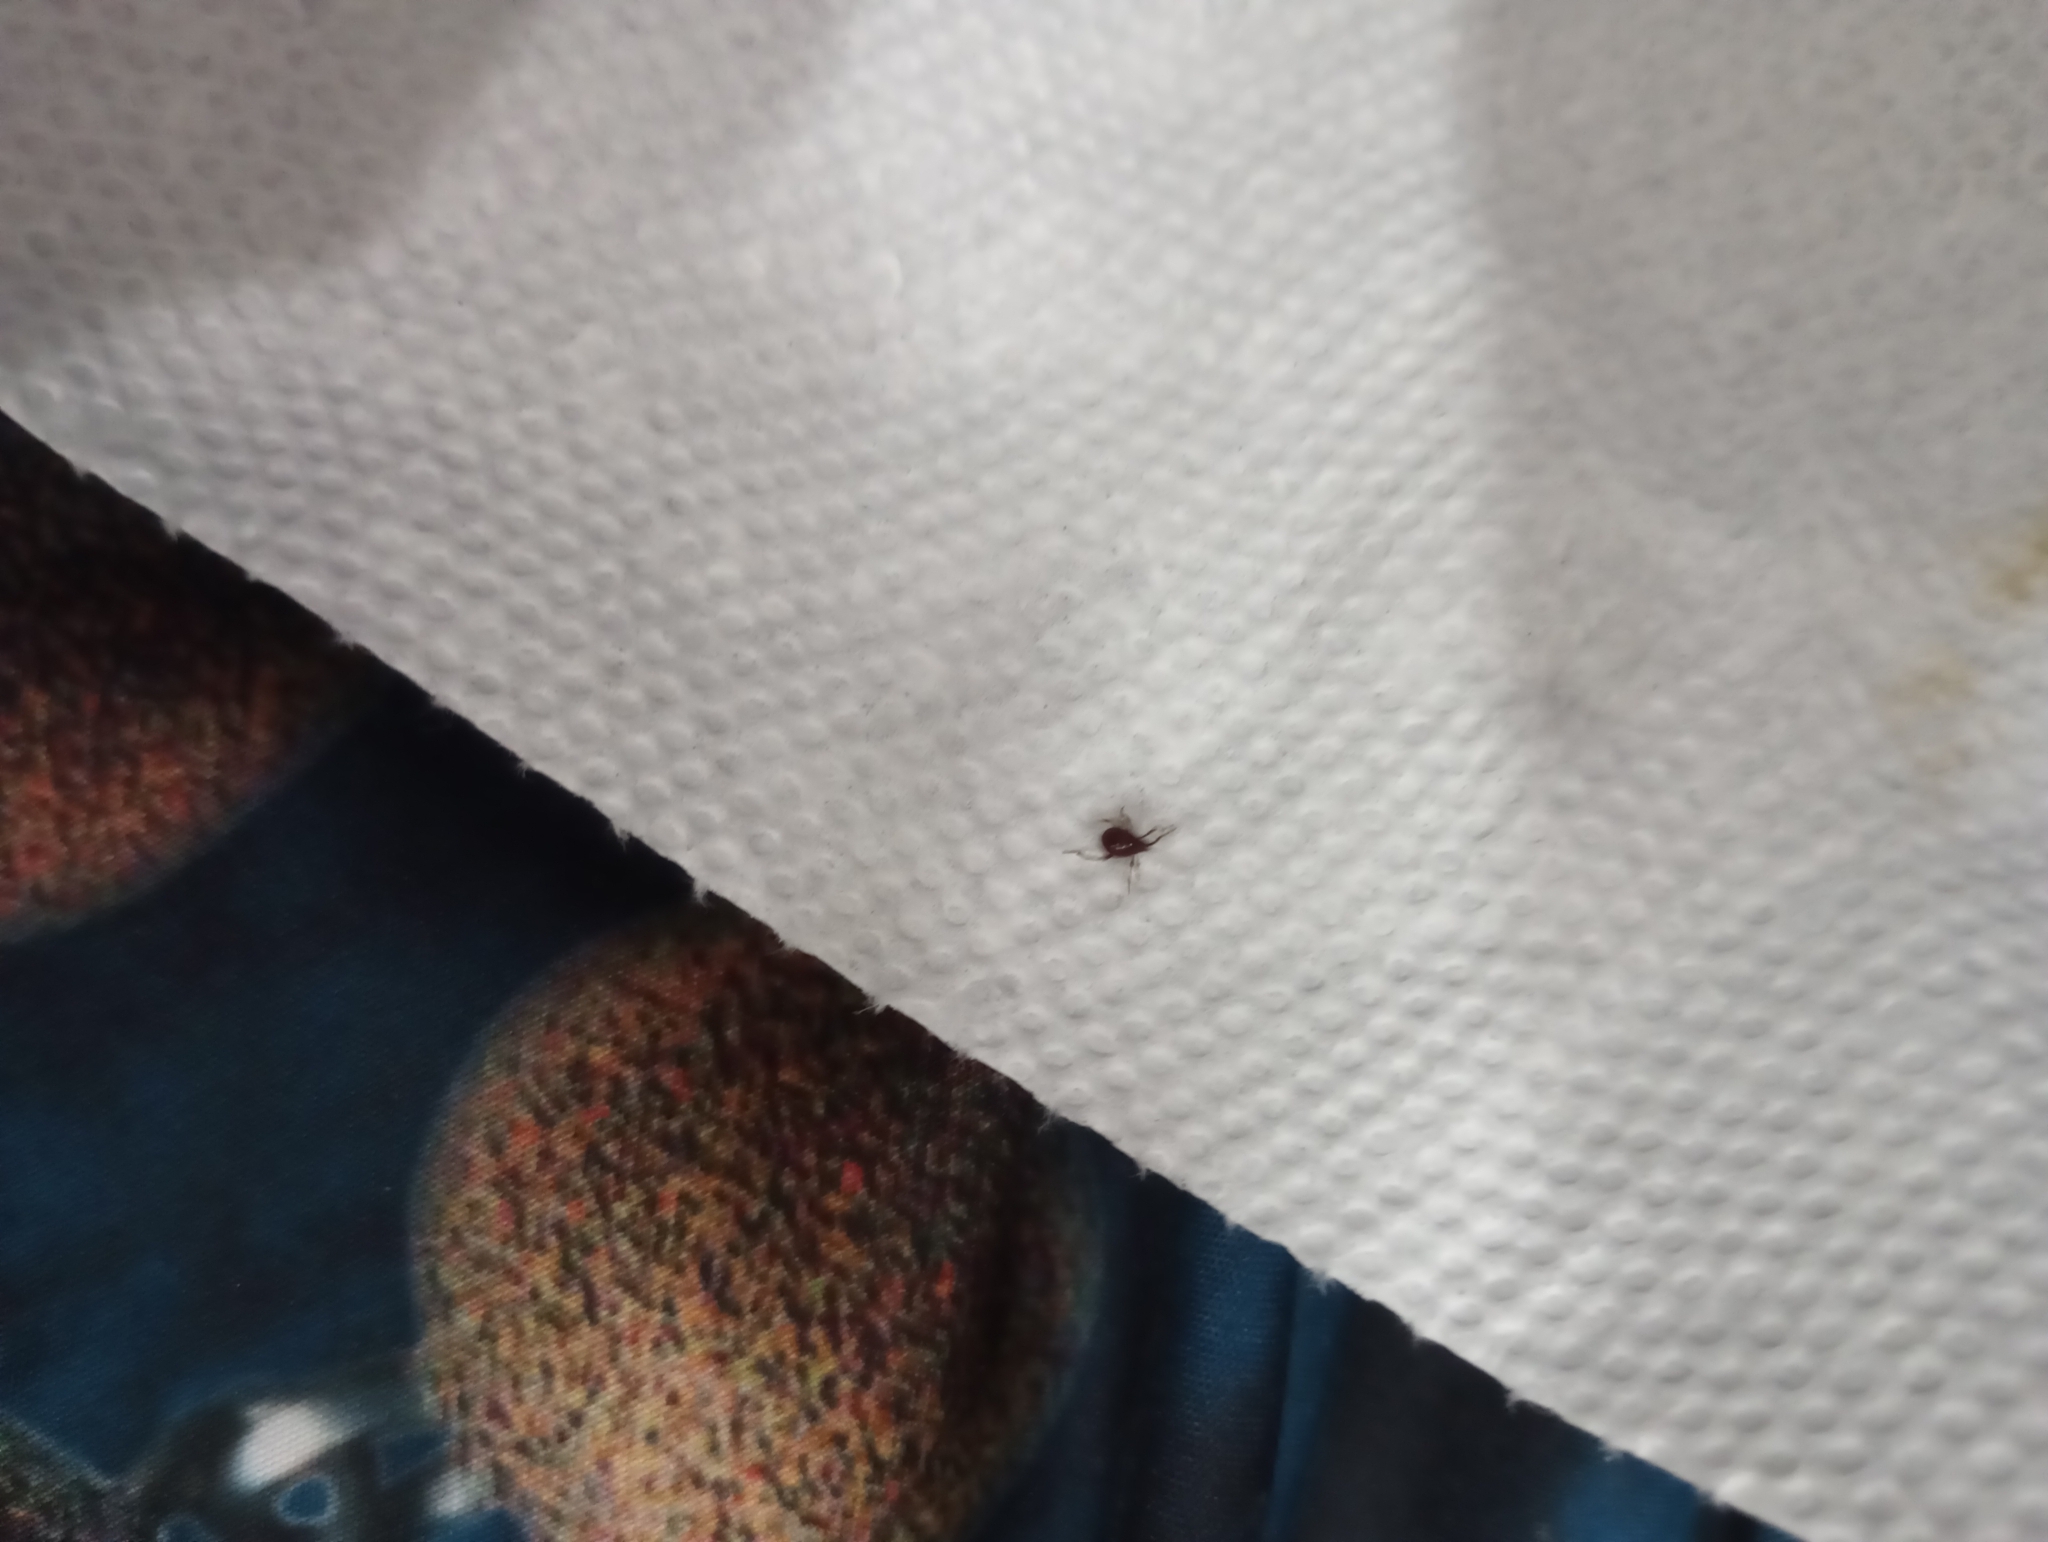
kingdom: Animalia
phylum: Arthropoda
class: Insecta
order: Coleoptera
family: Ptinidae
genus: Gibbium
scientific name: Gibbium aequinoctiale
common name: Smooth spider beetle
